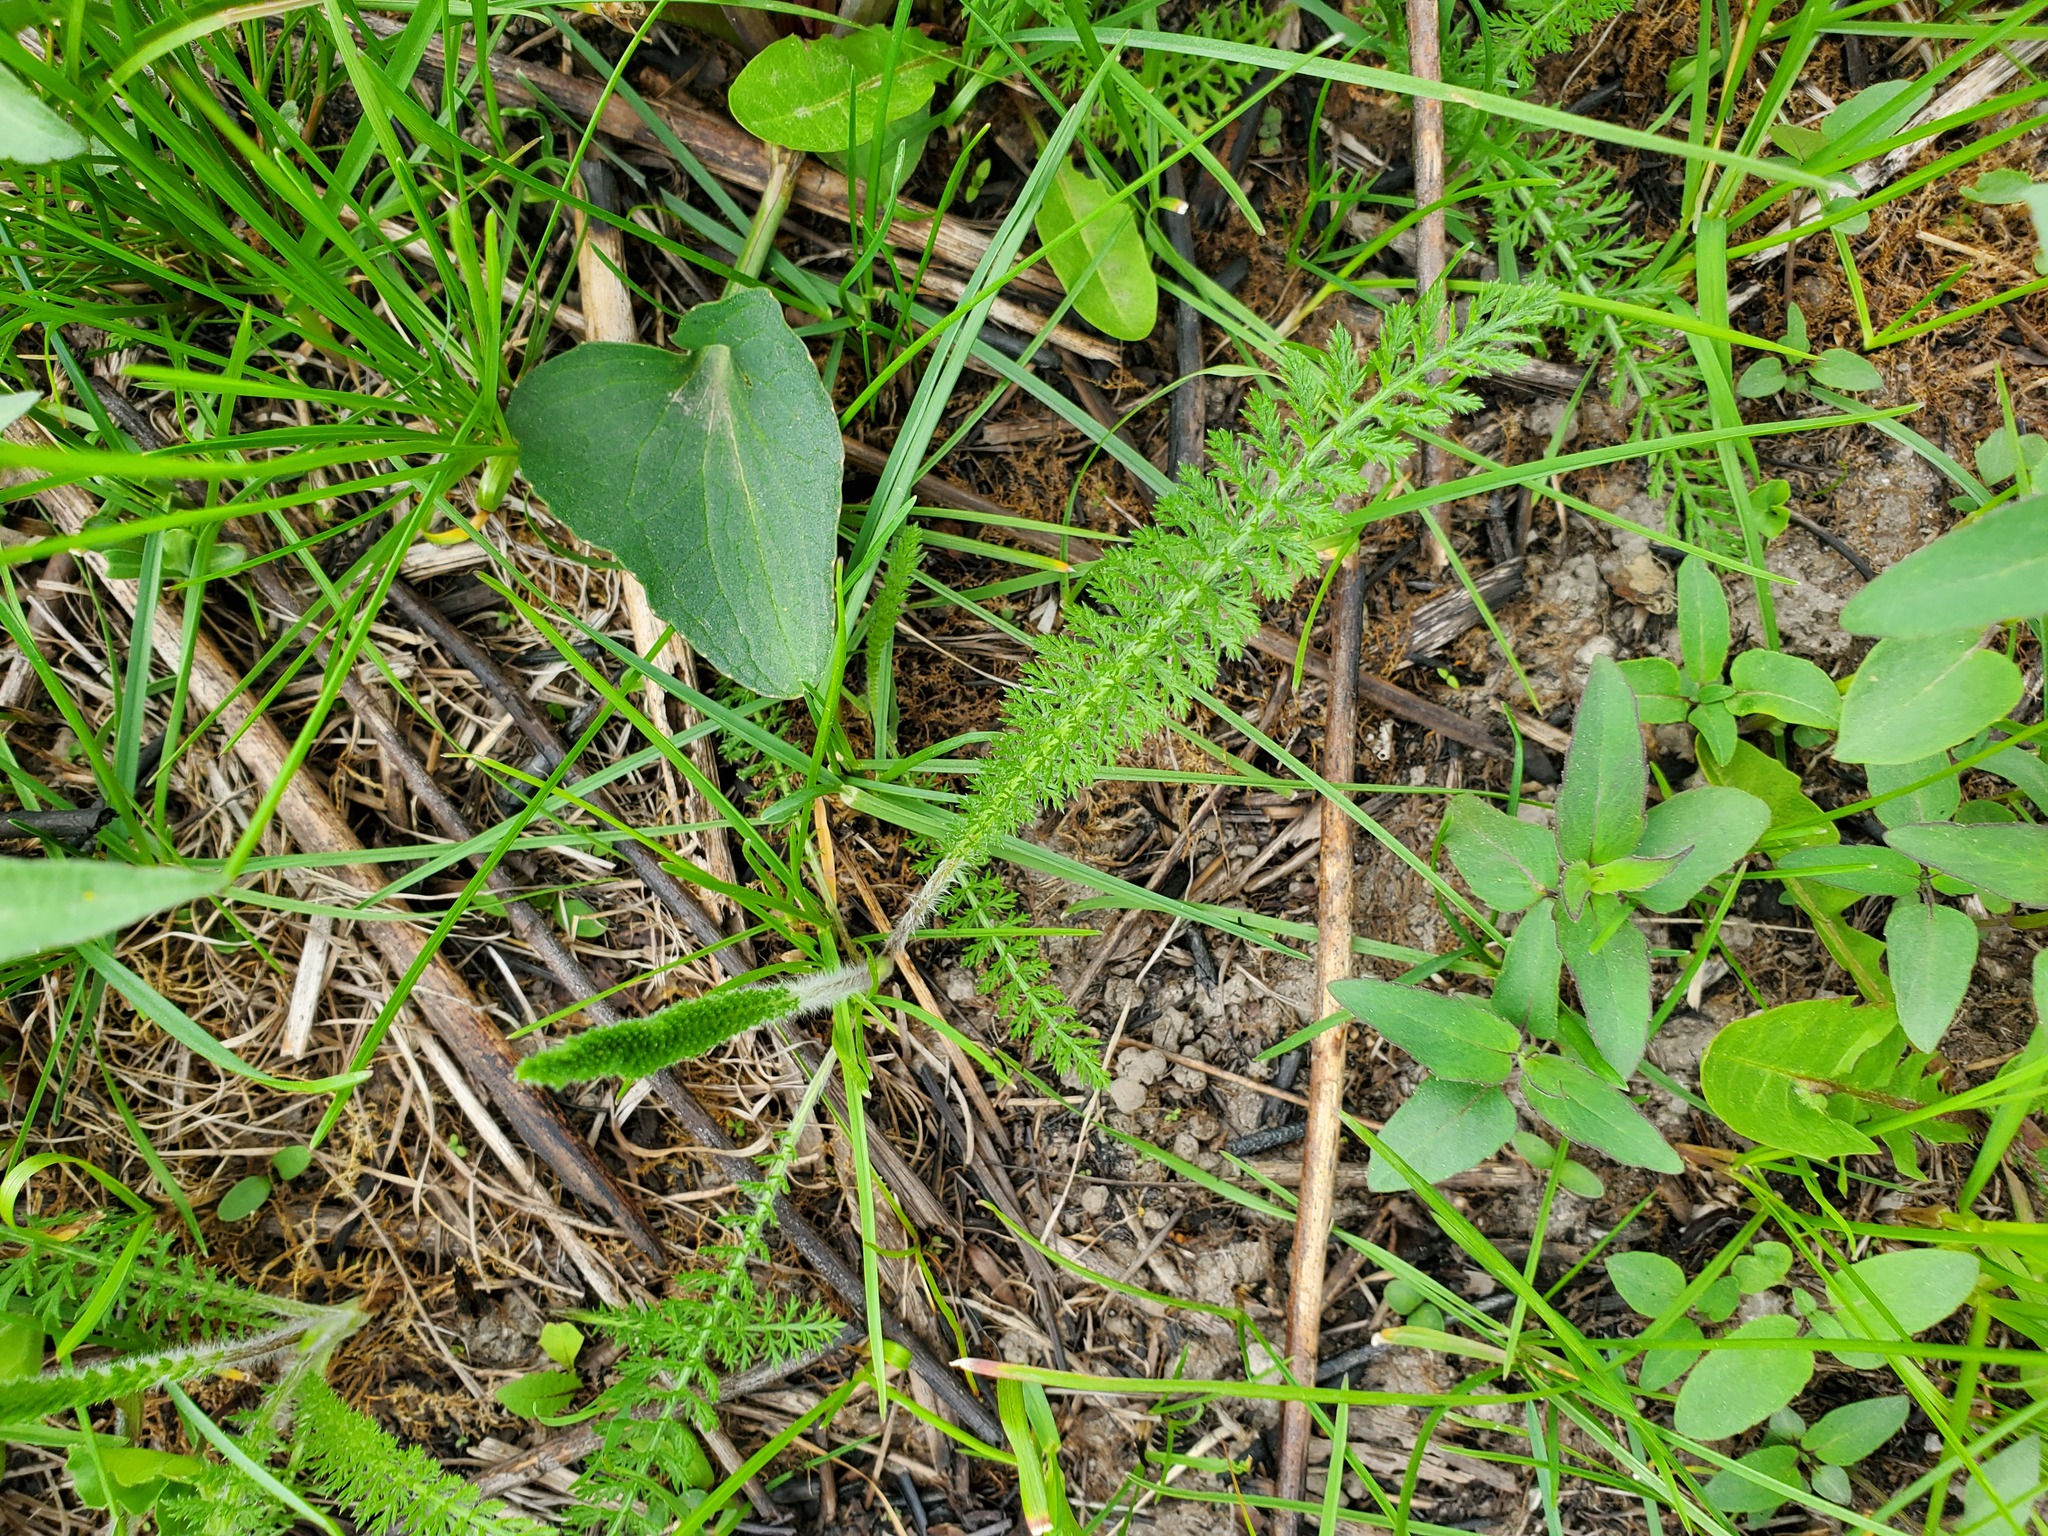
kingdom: Plantae
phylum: Tracheophyta
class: Magnoliopsida
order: Asterales
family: Asteraceae
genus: Achillea
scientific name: Achillea millefolium
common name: Yarrow
